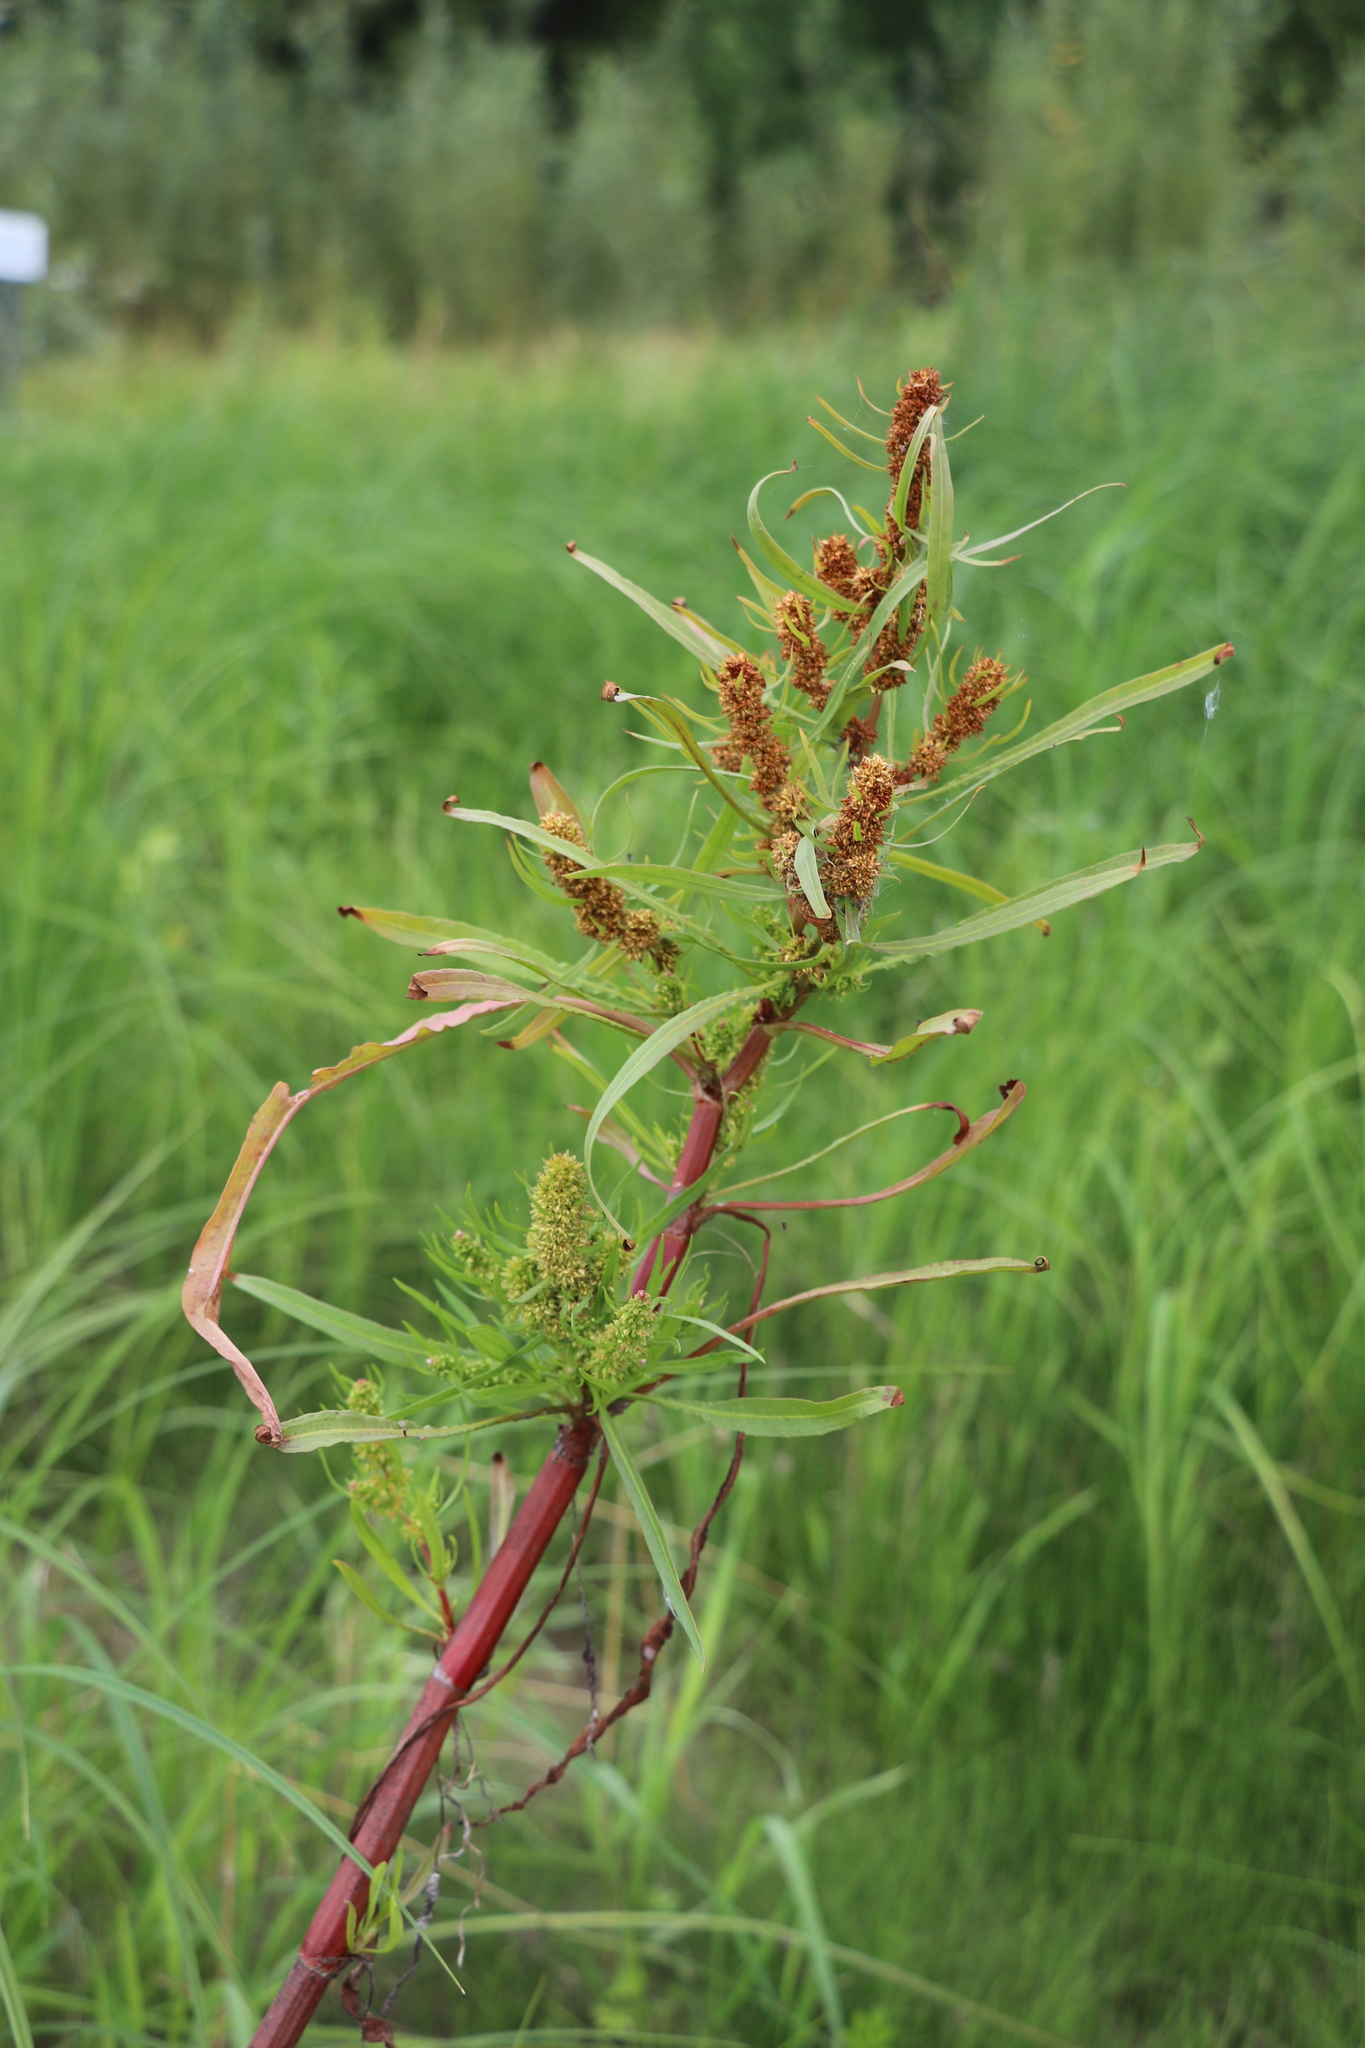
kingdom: Plantae
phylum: Tracheophyta
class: Magnoliopsida
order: Caryophyllales
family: Polygonaceae
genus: Rumex
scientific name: Rumex maritimus
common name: Golden dock
